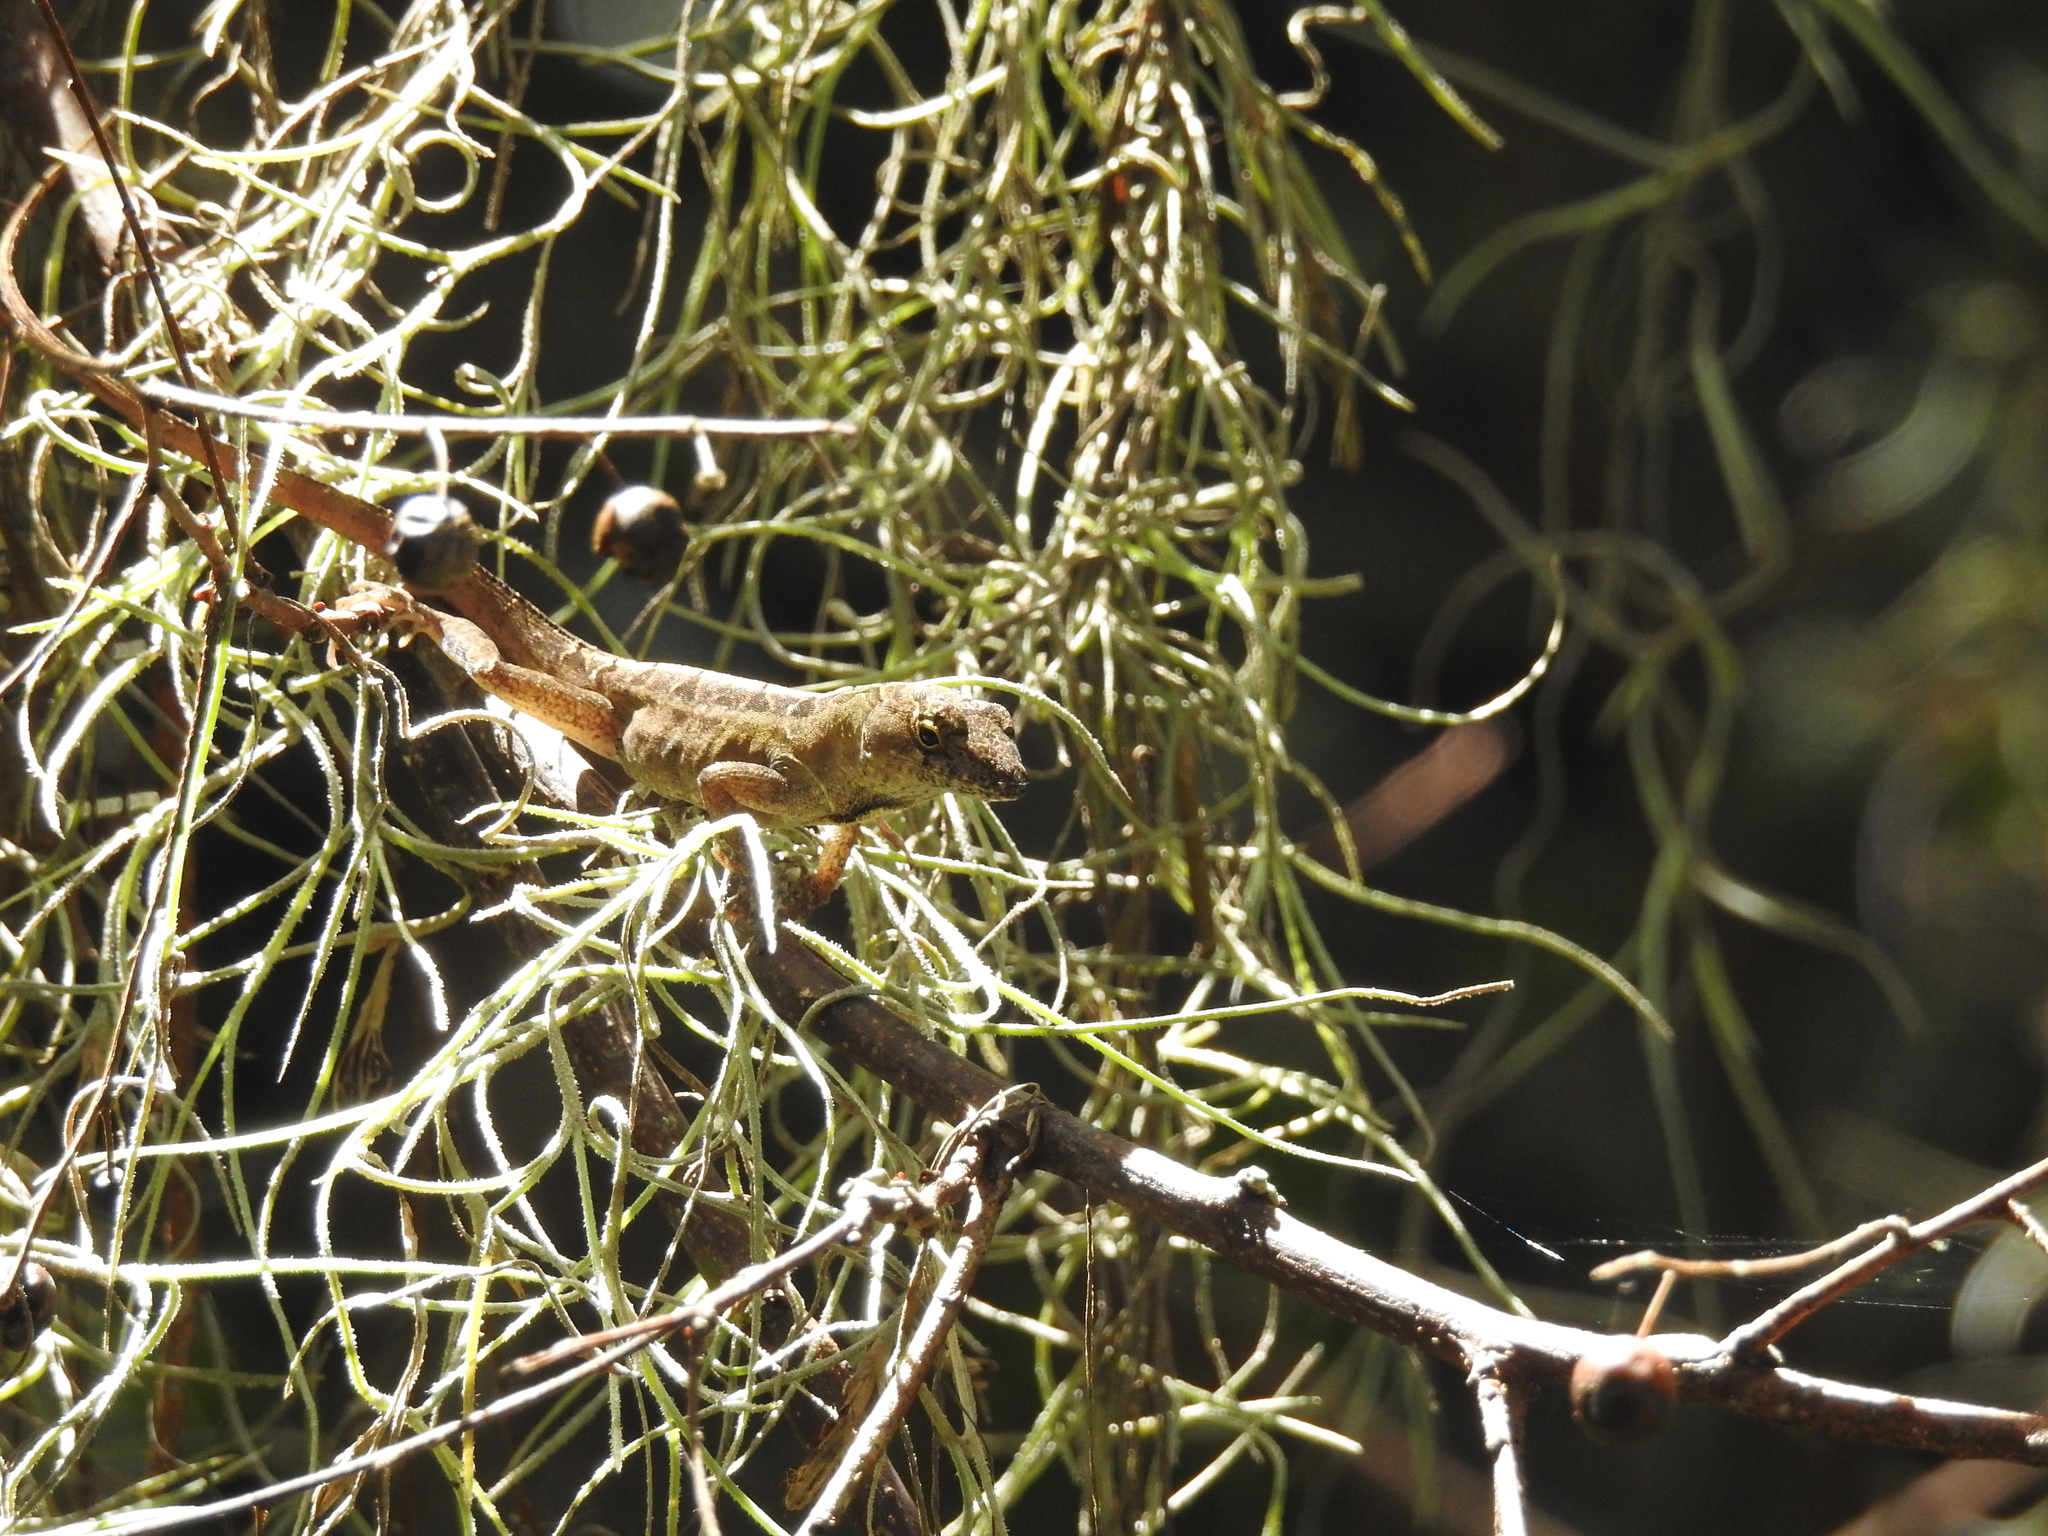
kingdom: Animalia
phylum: Chordata
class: Squamata
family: Dactyloidae
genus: Anolis
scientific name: Anolis sagrei
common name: Brown anole
